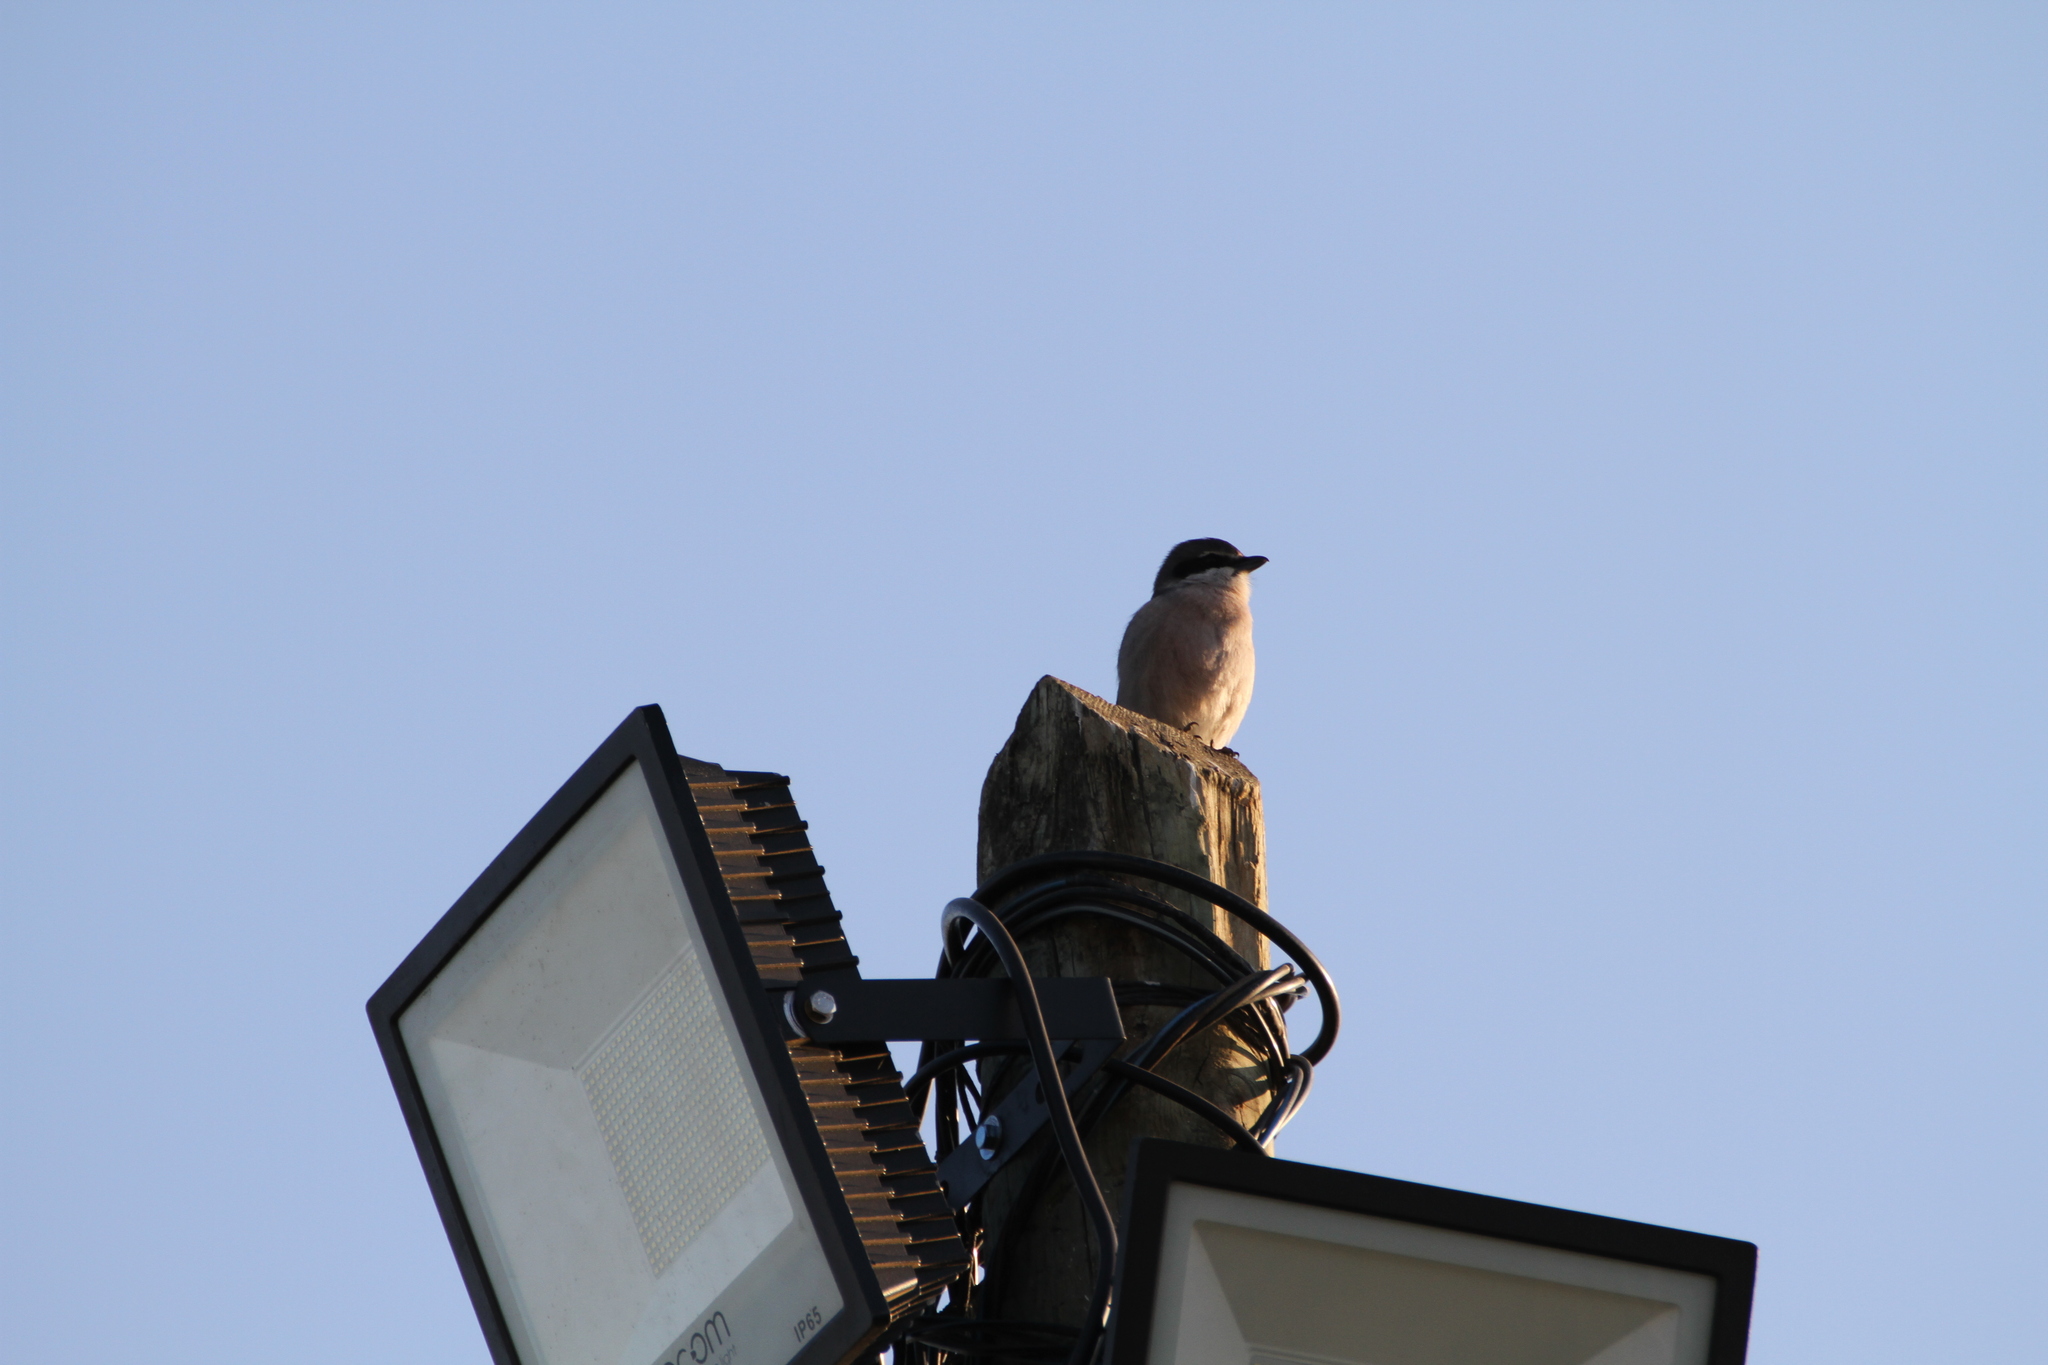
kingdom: Animalia
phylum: Chordata
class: Aves
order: Passeriformes
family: Laniidae
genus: Lanius
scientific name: Lanius meridionalis
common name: Iberian grey shrike
